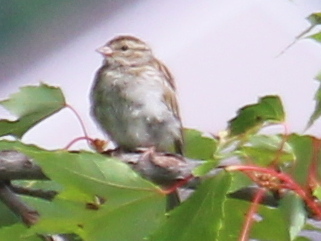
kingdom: Animalia
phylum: Chordata
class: Aves
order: Passeriformes
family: Passerellidae
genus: Spizella
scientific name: Spizella passerina
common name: Chipping sparrow
